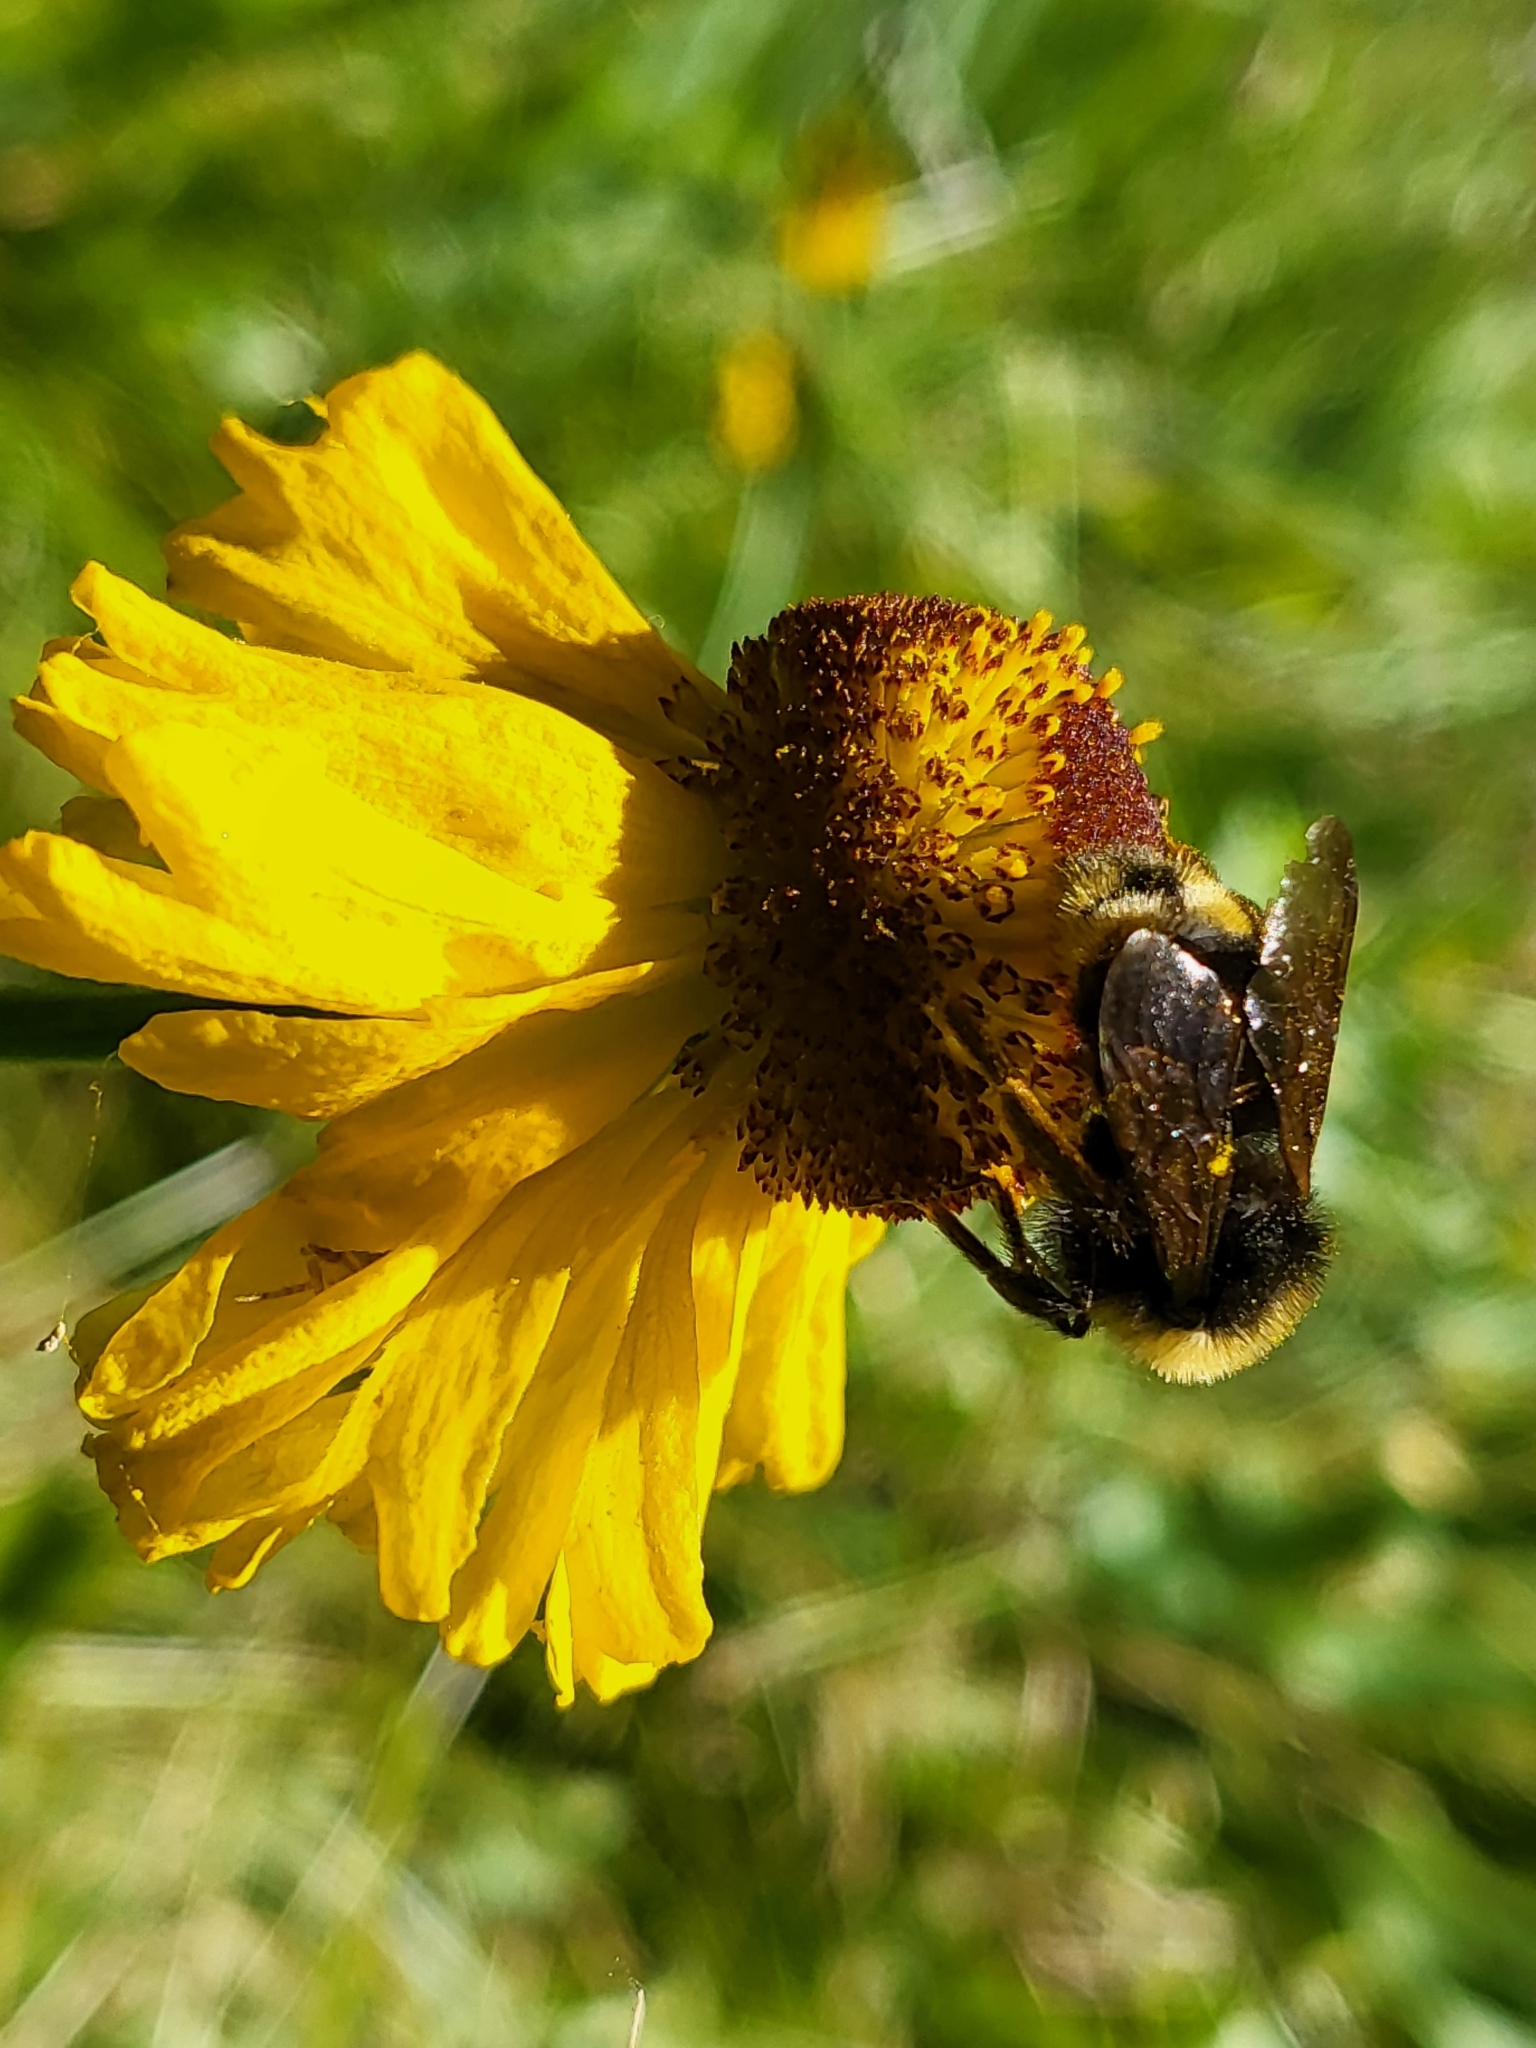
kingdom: Plantae
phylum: Tracheophyta
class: Magnoliopsida
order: Asterales
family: Asteraceae
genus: Helenium
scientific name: Helenium bigelovii
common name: Bigelow's sneezeweed
